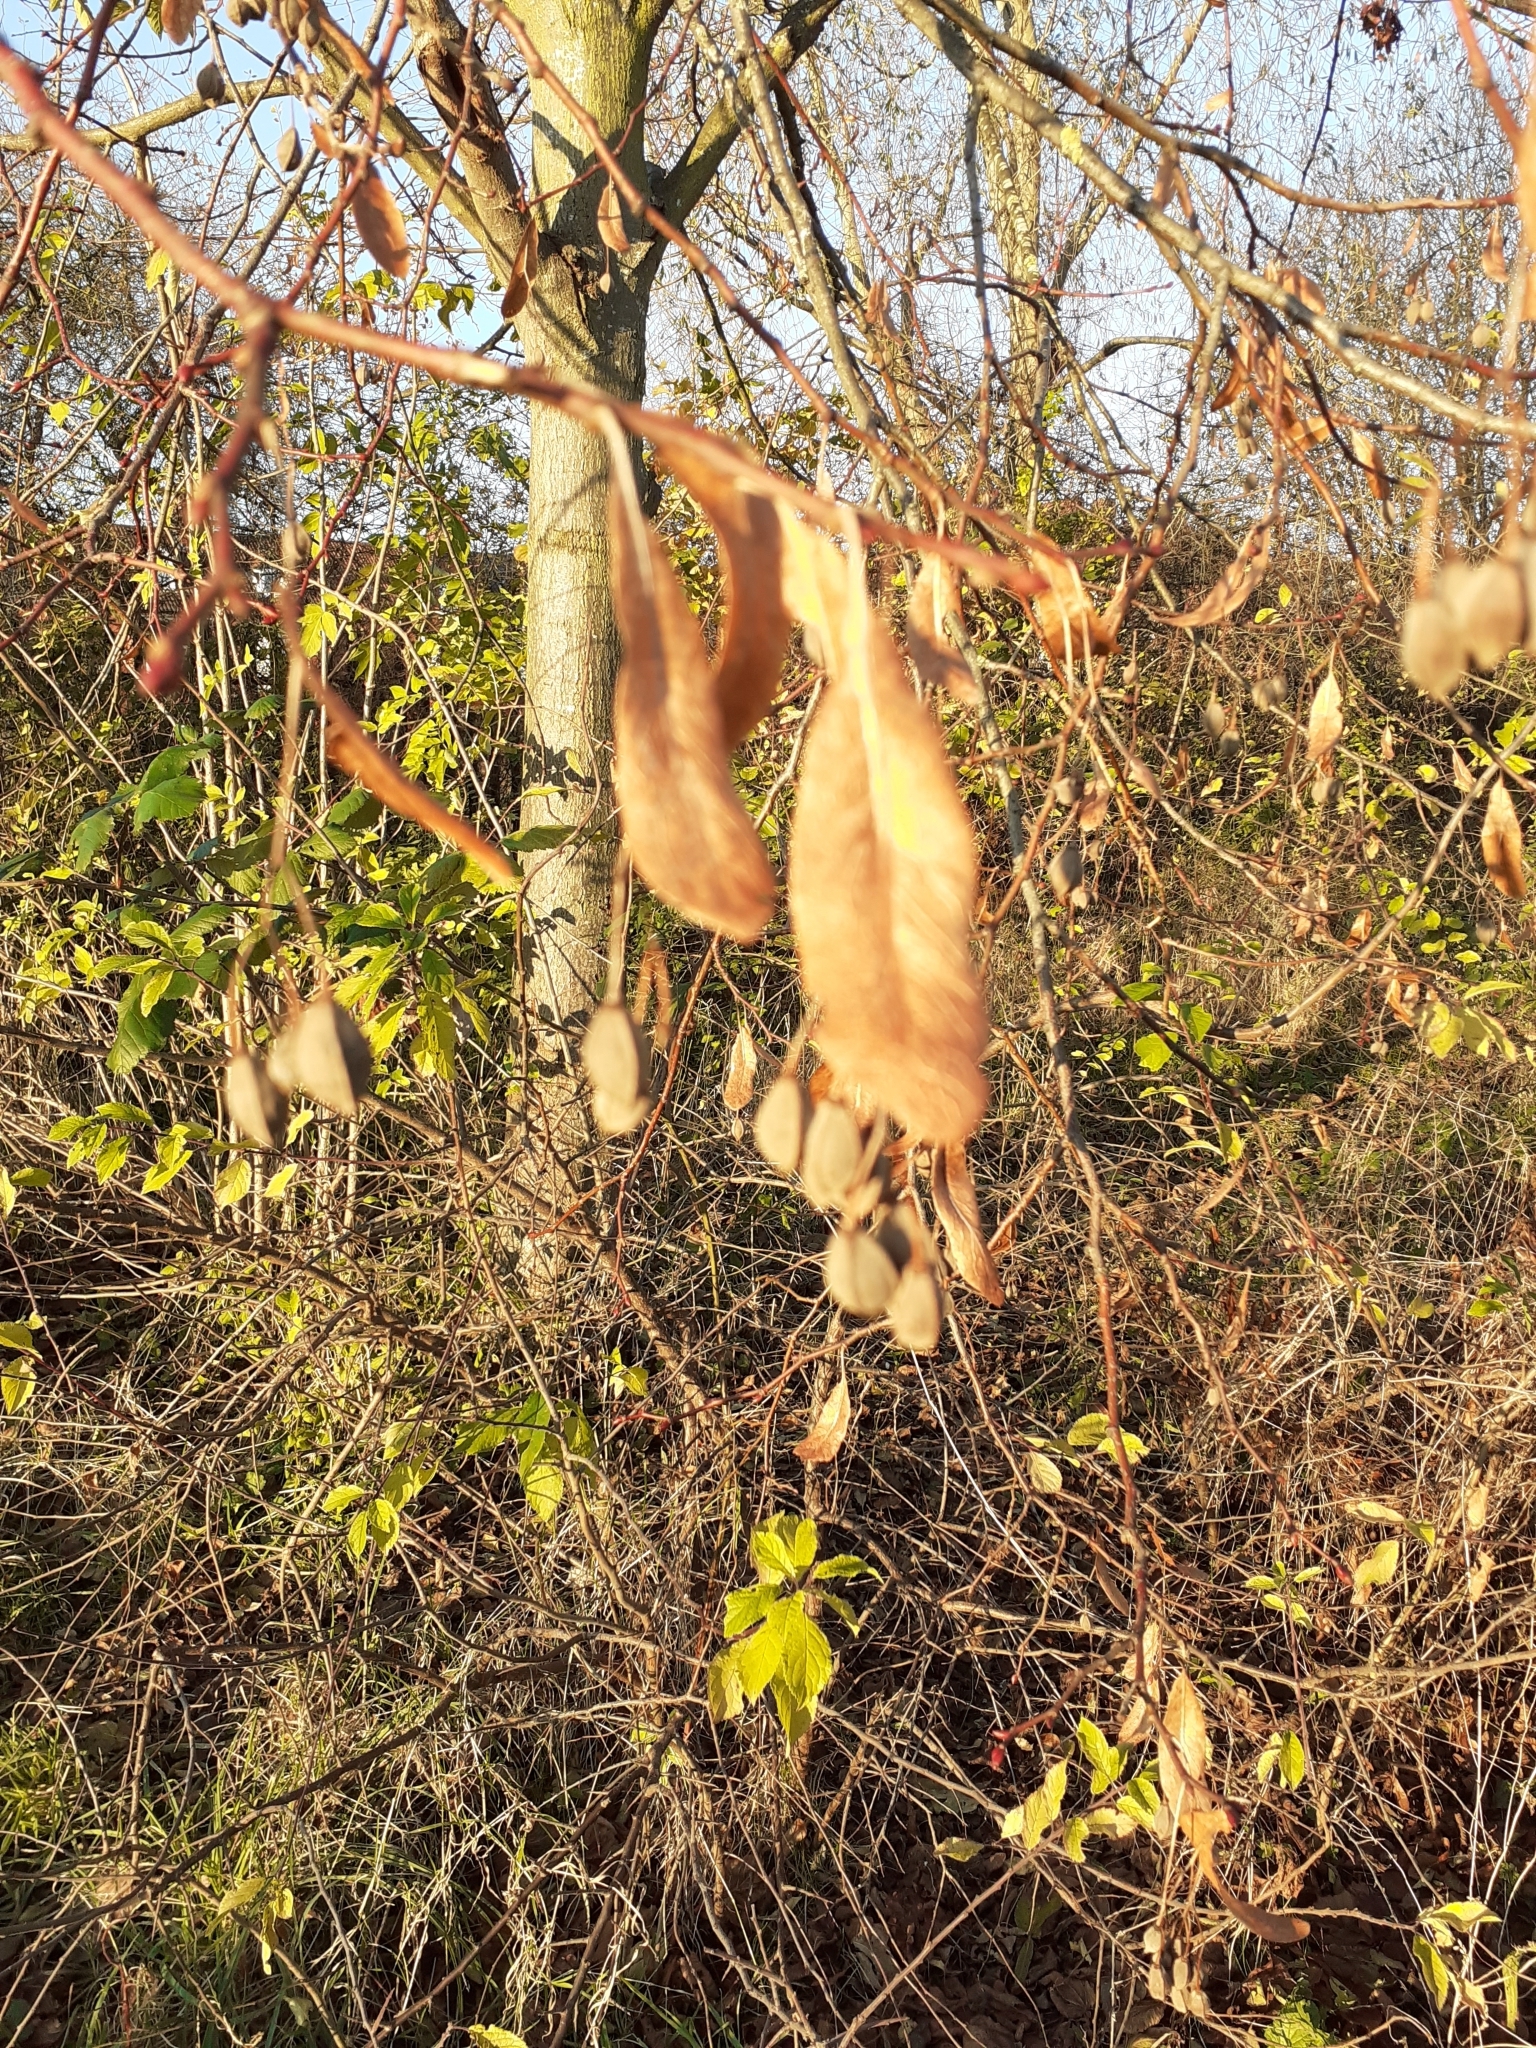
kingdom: Plantae
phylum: Tracheophyta
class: Magnoliopsida
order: Malvales
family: Malvaceae
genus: Tilia
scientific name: Tilia europaea
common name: European linden
